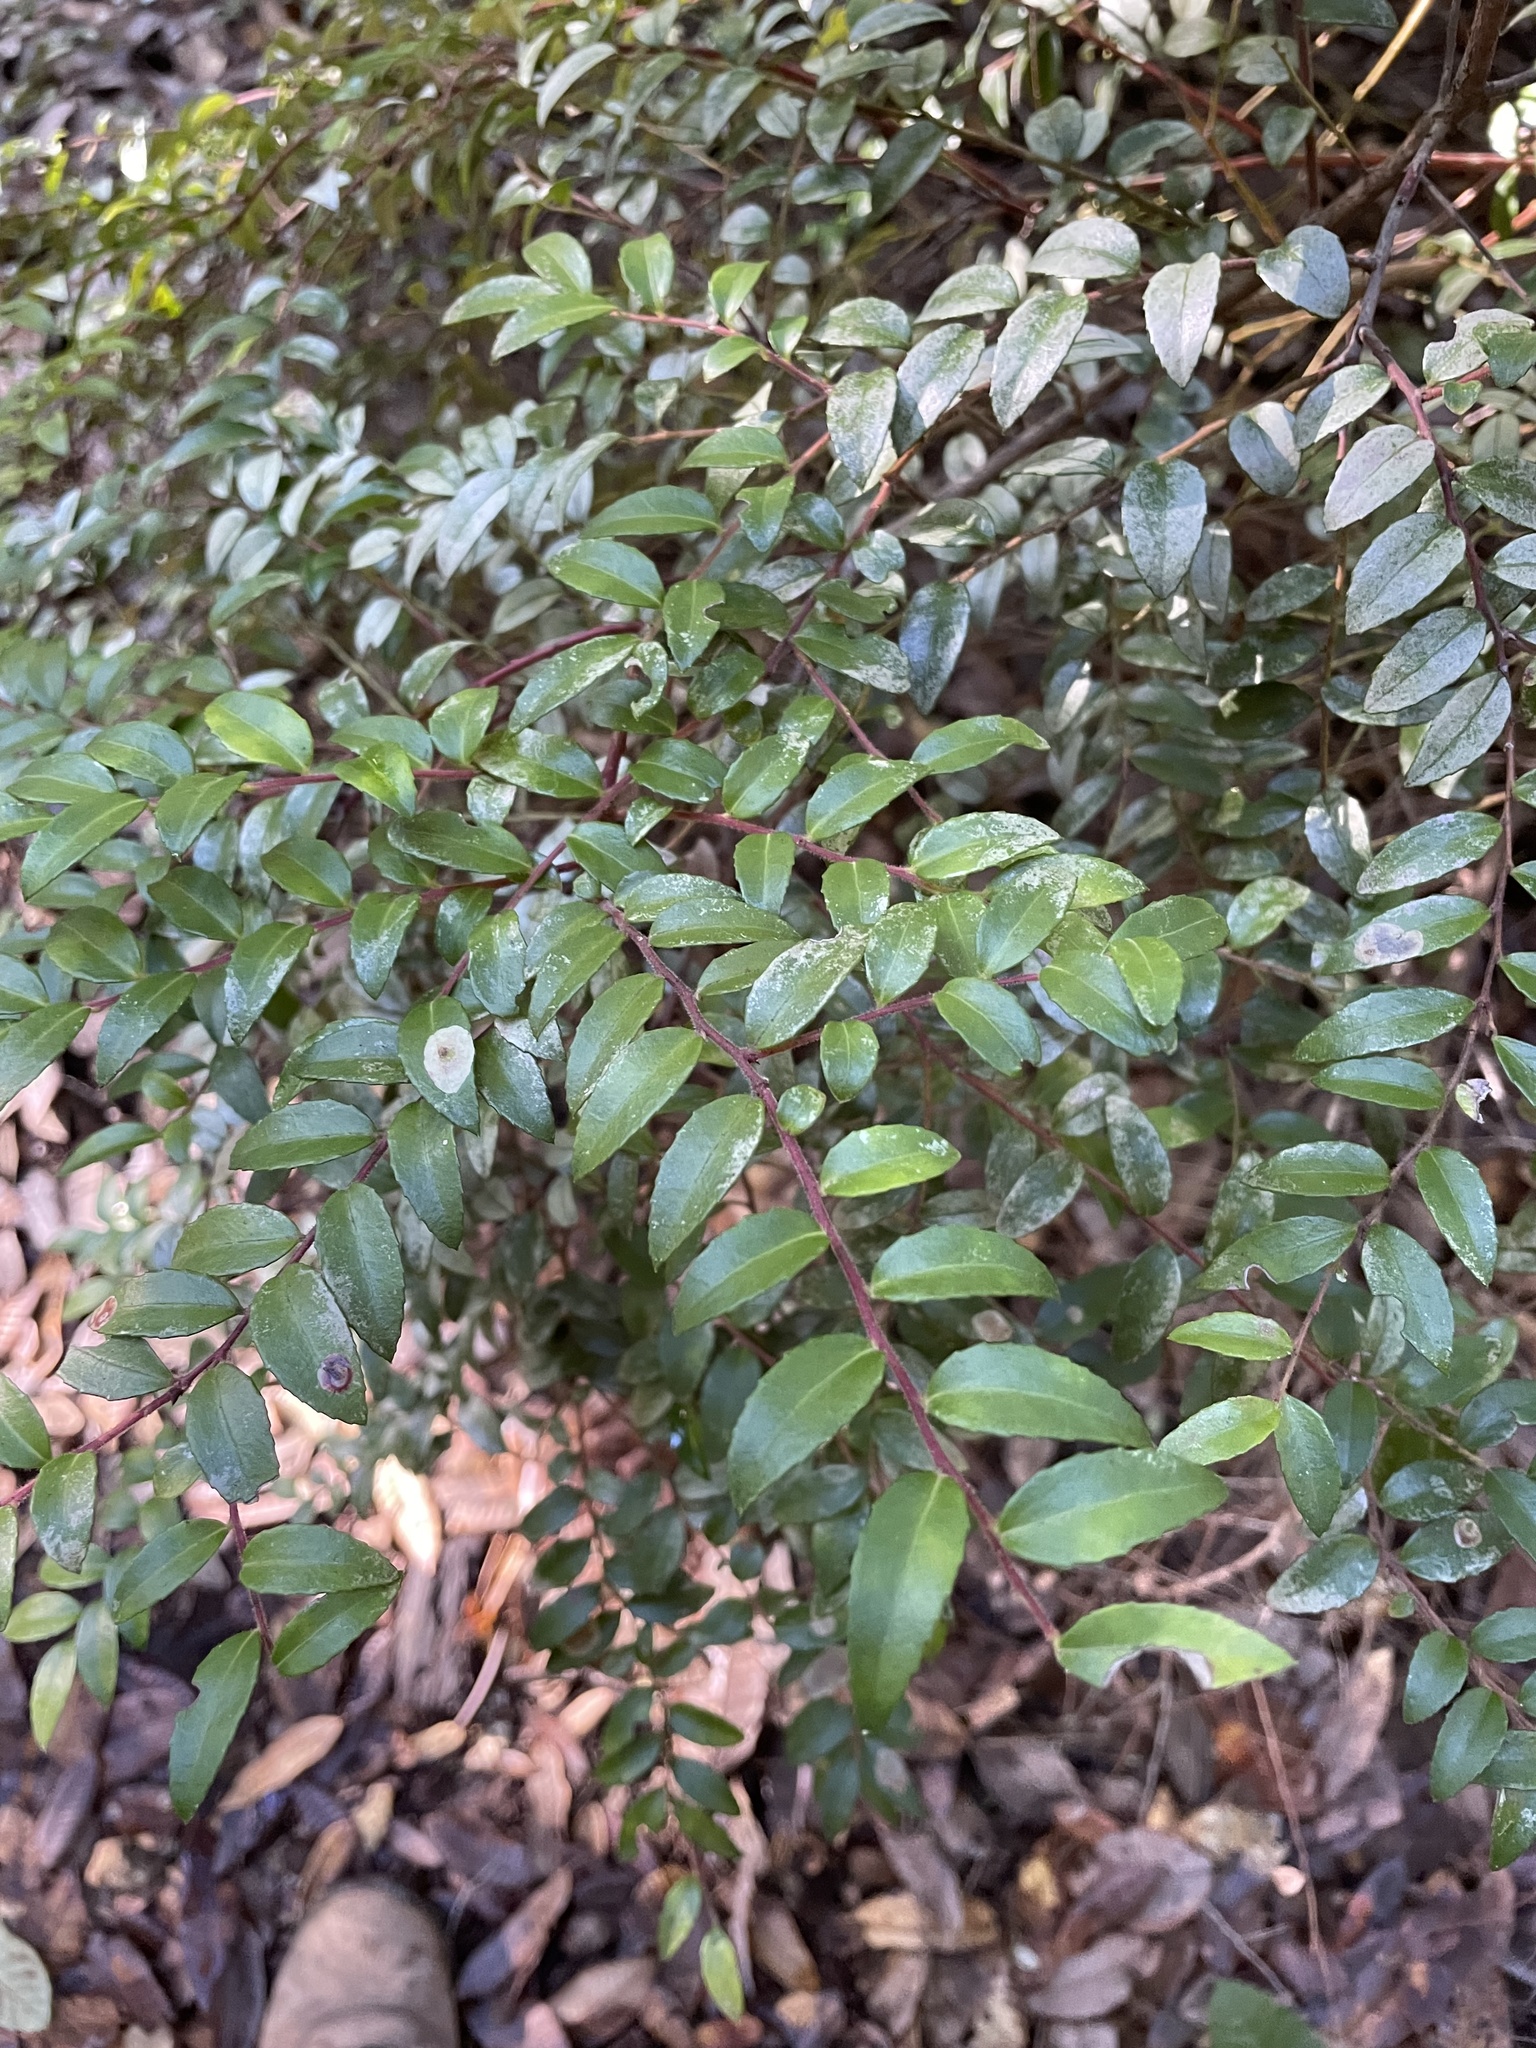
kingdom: Plantae
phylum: Tracheophyta
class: Magnoliopsida
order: Ericales
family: Ericaceae
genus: Vaccinium
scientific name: Vaccinium ovatum
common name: California-huckleberry
